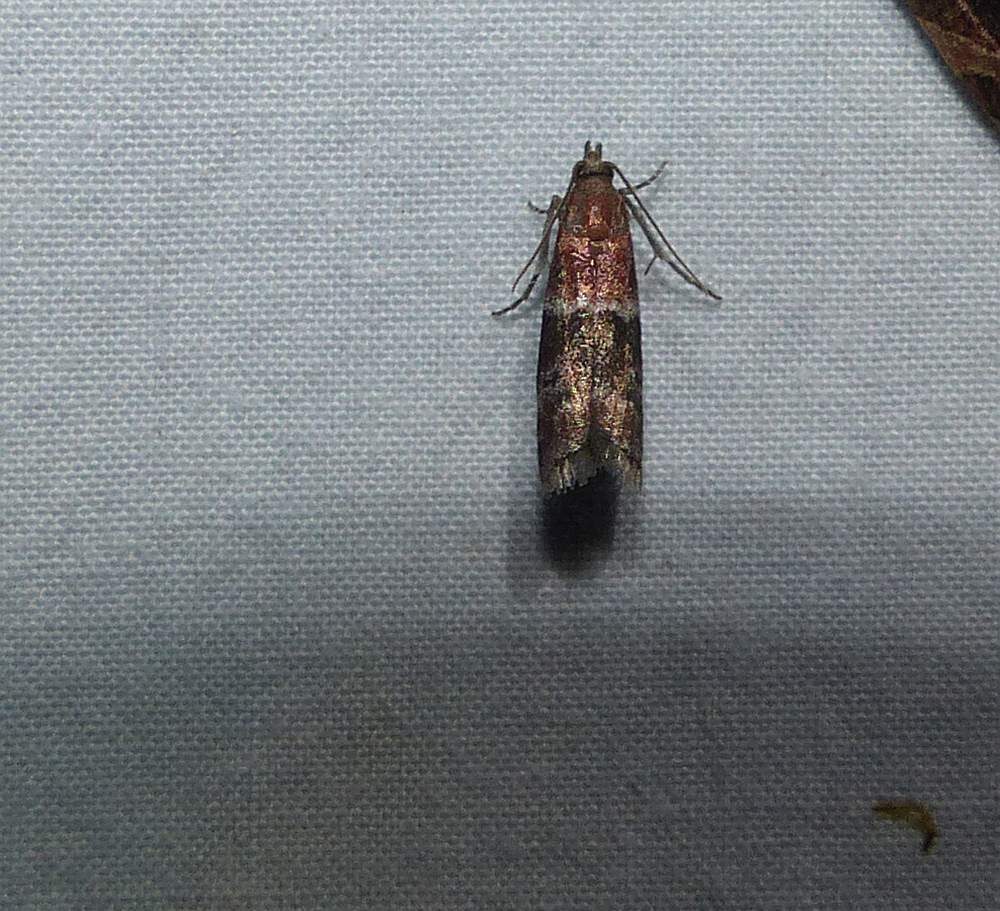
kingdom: Animalia
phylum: Arthropoda
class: Insecta
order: Lepidoptera
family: Pyralidae
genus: Moodna
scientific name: Moodna ostrinella
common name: Darker moodna moth
